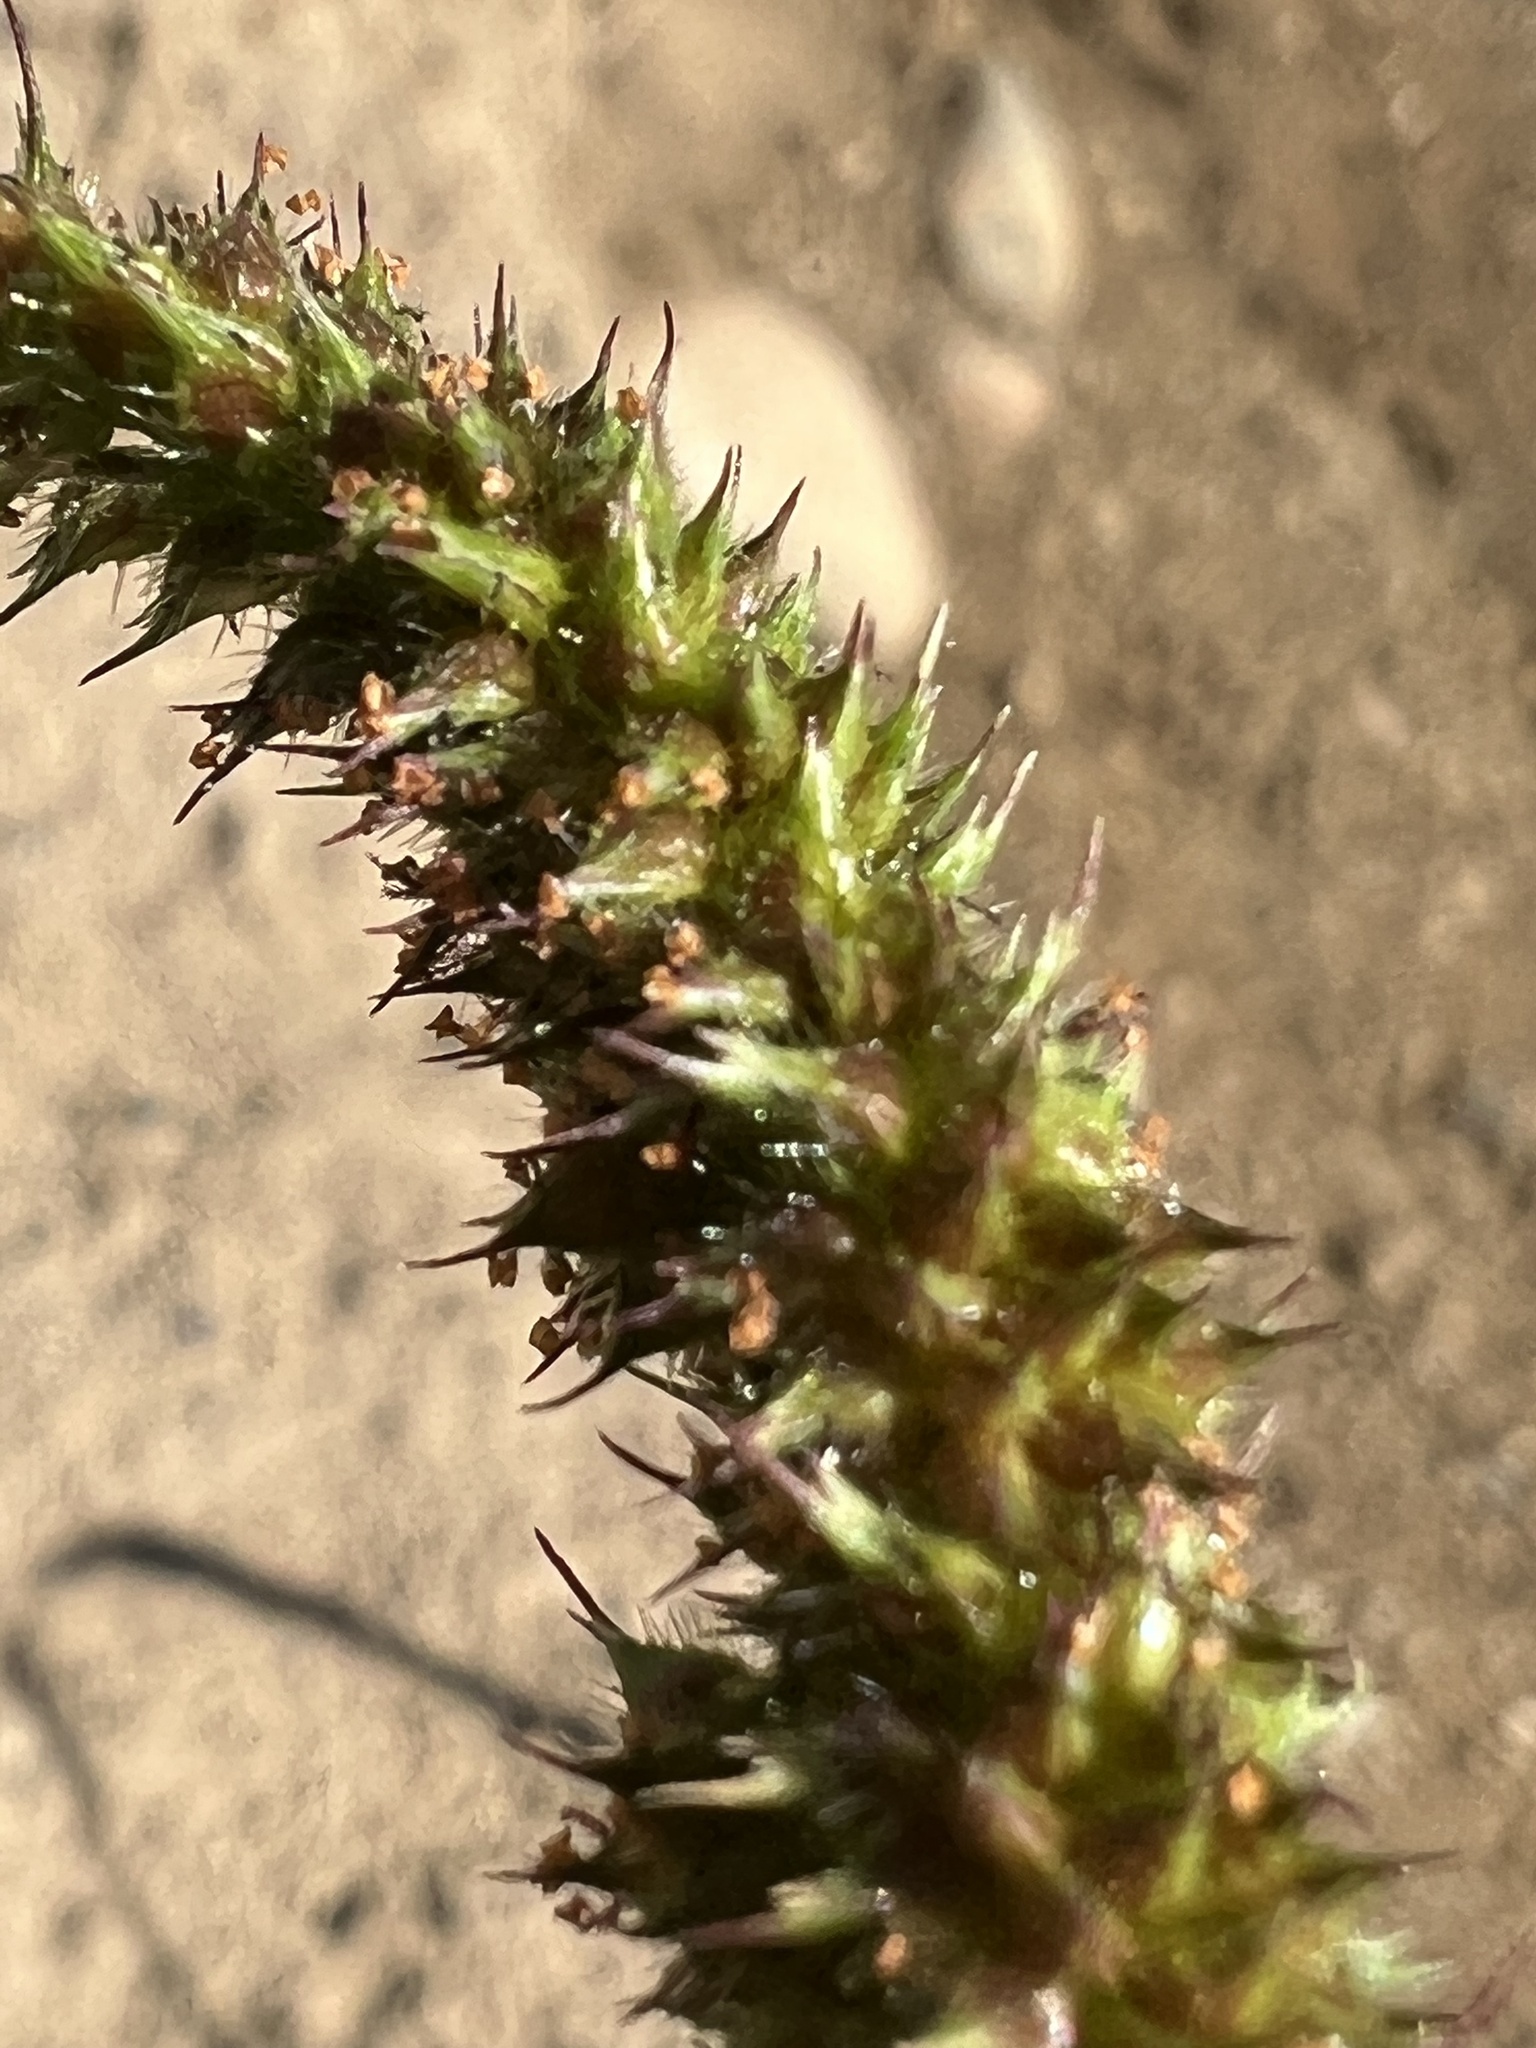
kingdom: Plantae
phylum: Tracheophyta
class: Liliopsida
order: Poales
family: Poaceae
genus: Echinochloa
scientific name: Echinochloa crus-galli
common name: Cockspur
